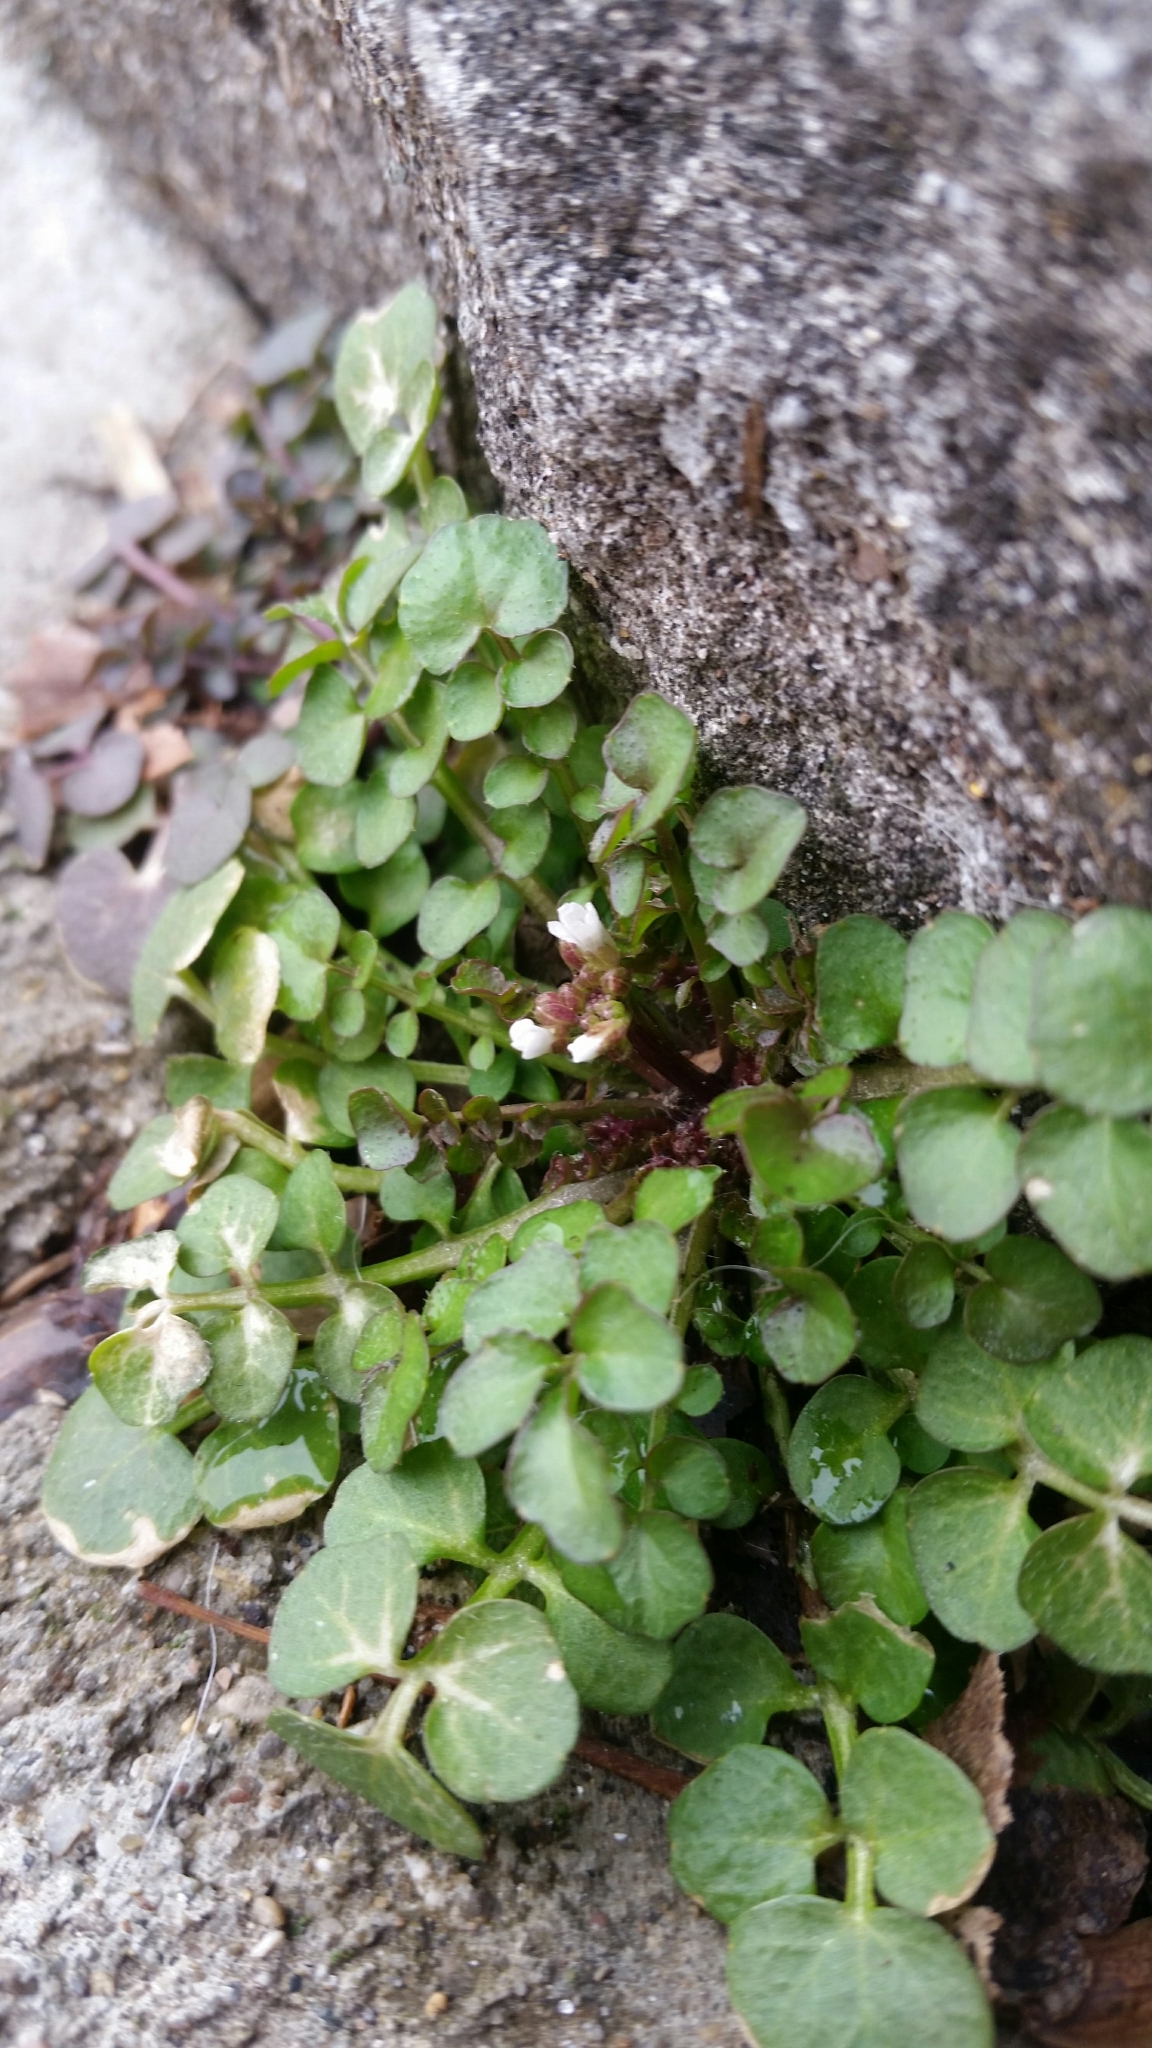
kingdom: Plantae
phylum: Tracheophyta
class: Magnoliopsida
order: Brassicales
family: Brassicaceae
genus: Cardamine
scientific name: Cardamine hirsuta
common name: Hairy bittercress
